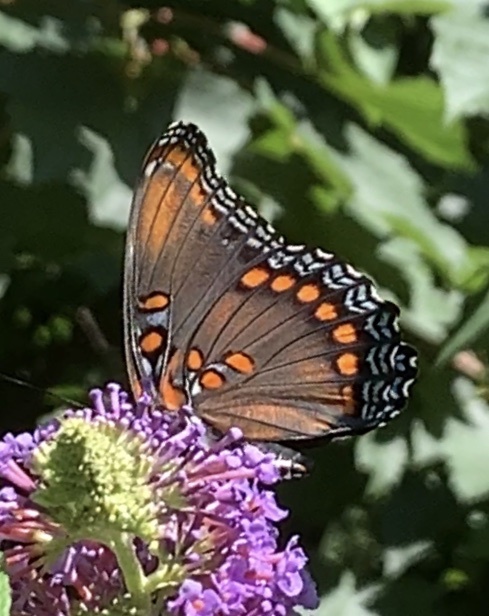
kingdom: Animalia
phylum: Arthropoda
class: Insecta
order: Lepidoptera
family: Nymphalidae
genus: Limenitis
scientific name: Limenitis astyanax
